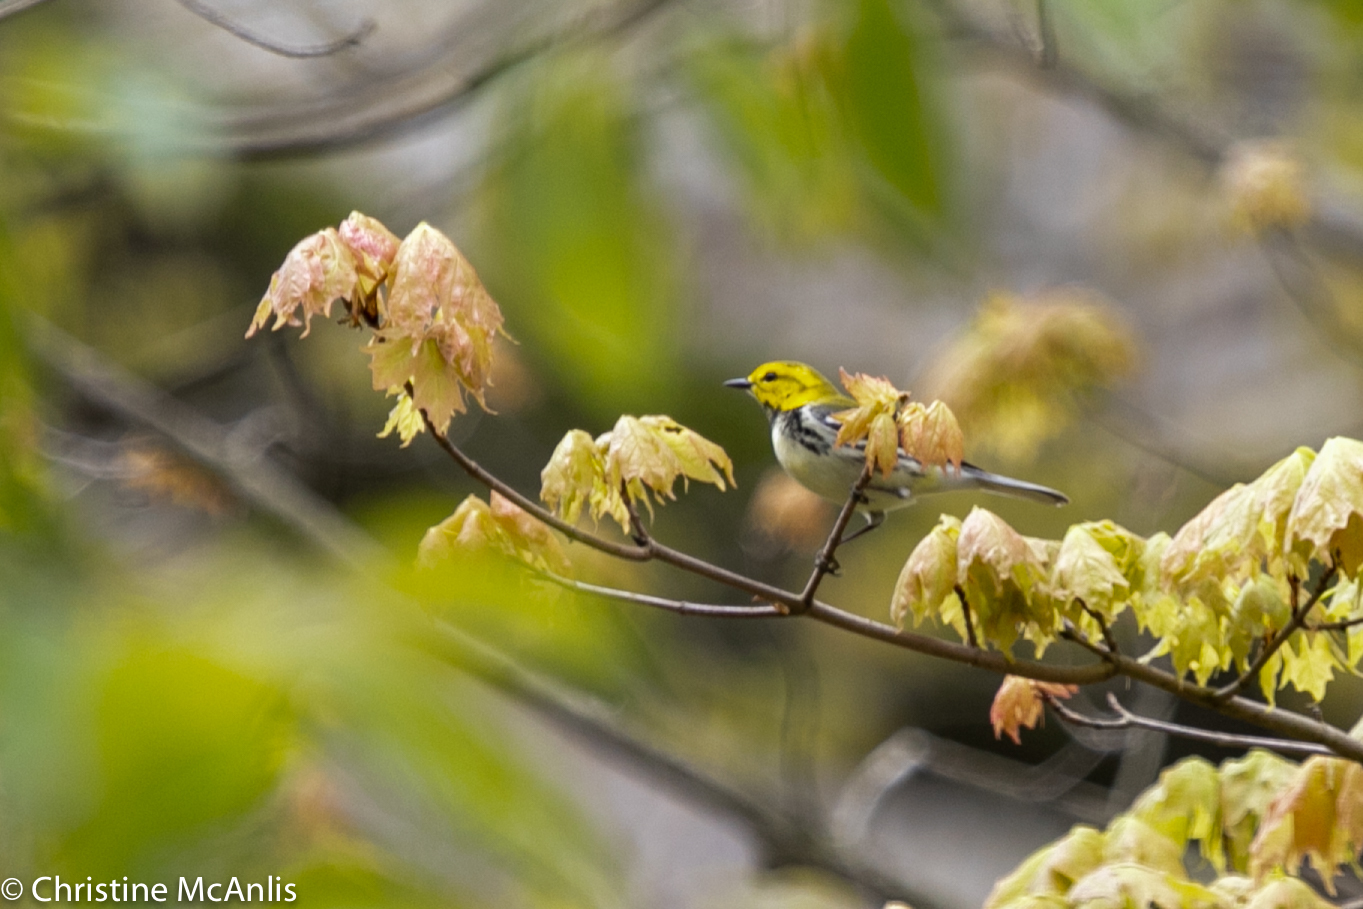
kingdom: Animalia
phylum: Chordata
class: Aves
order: Passeriformes
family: Parulidae
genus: Setophaga
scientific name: Setophaga virens
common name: Black-throated green warbler
